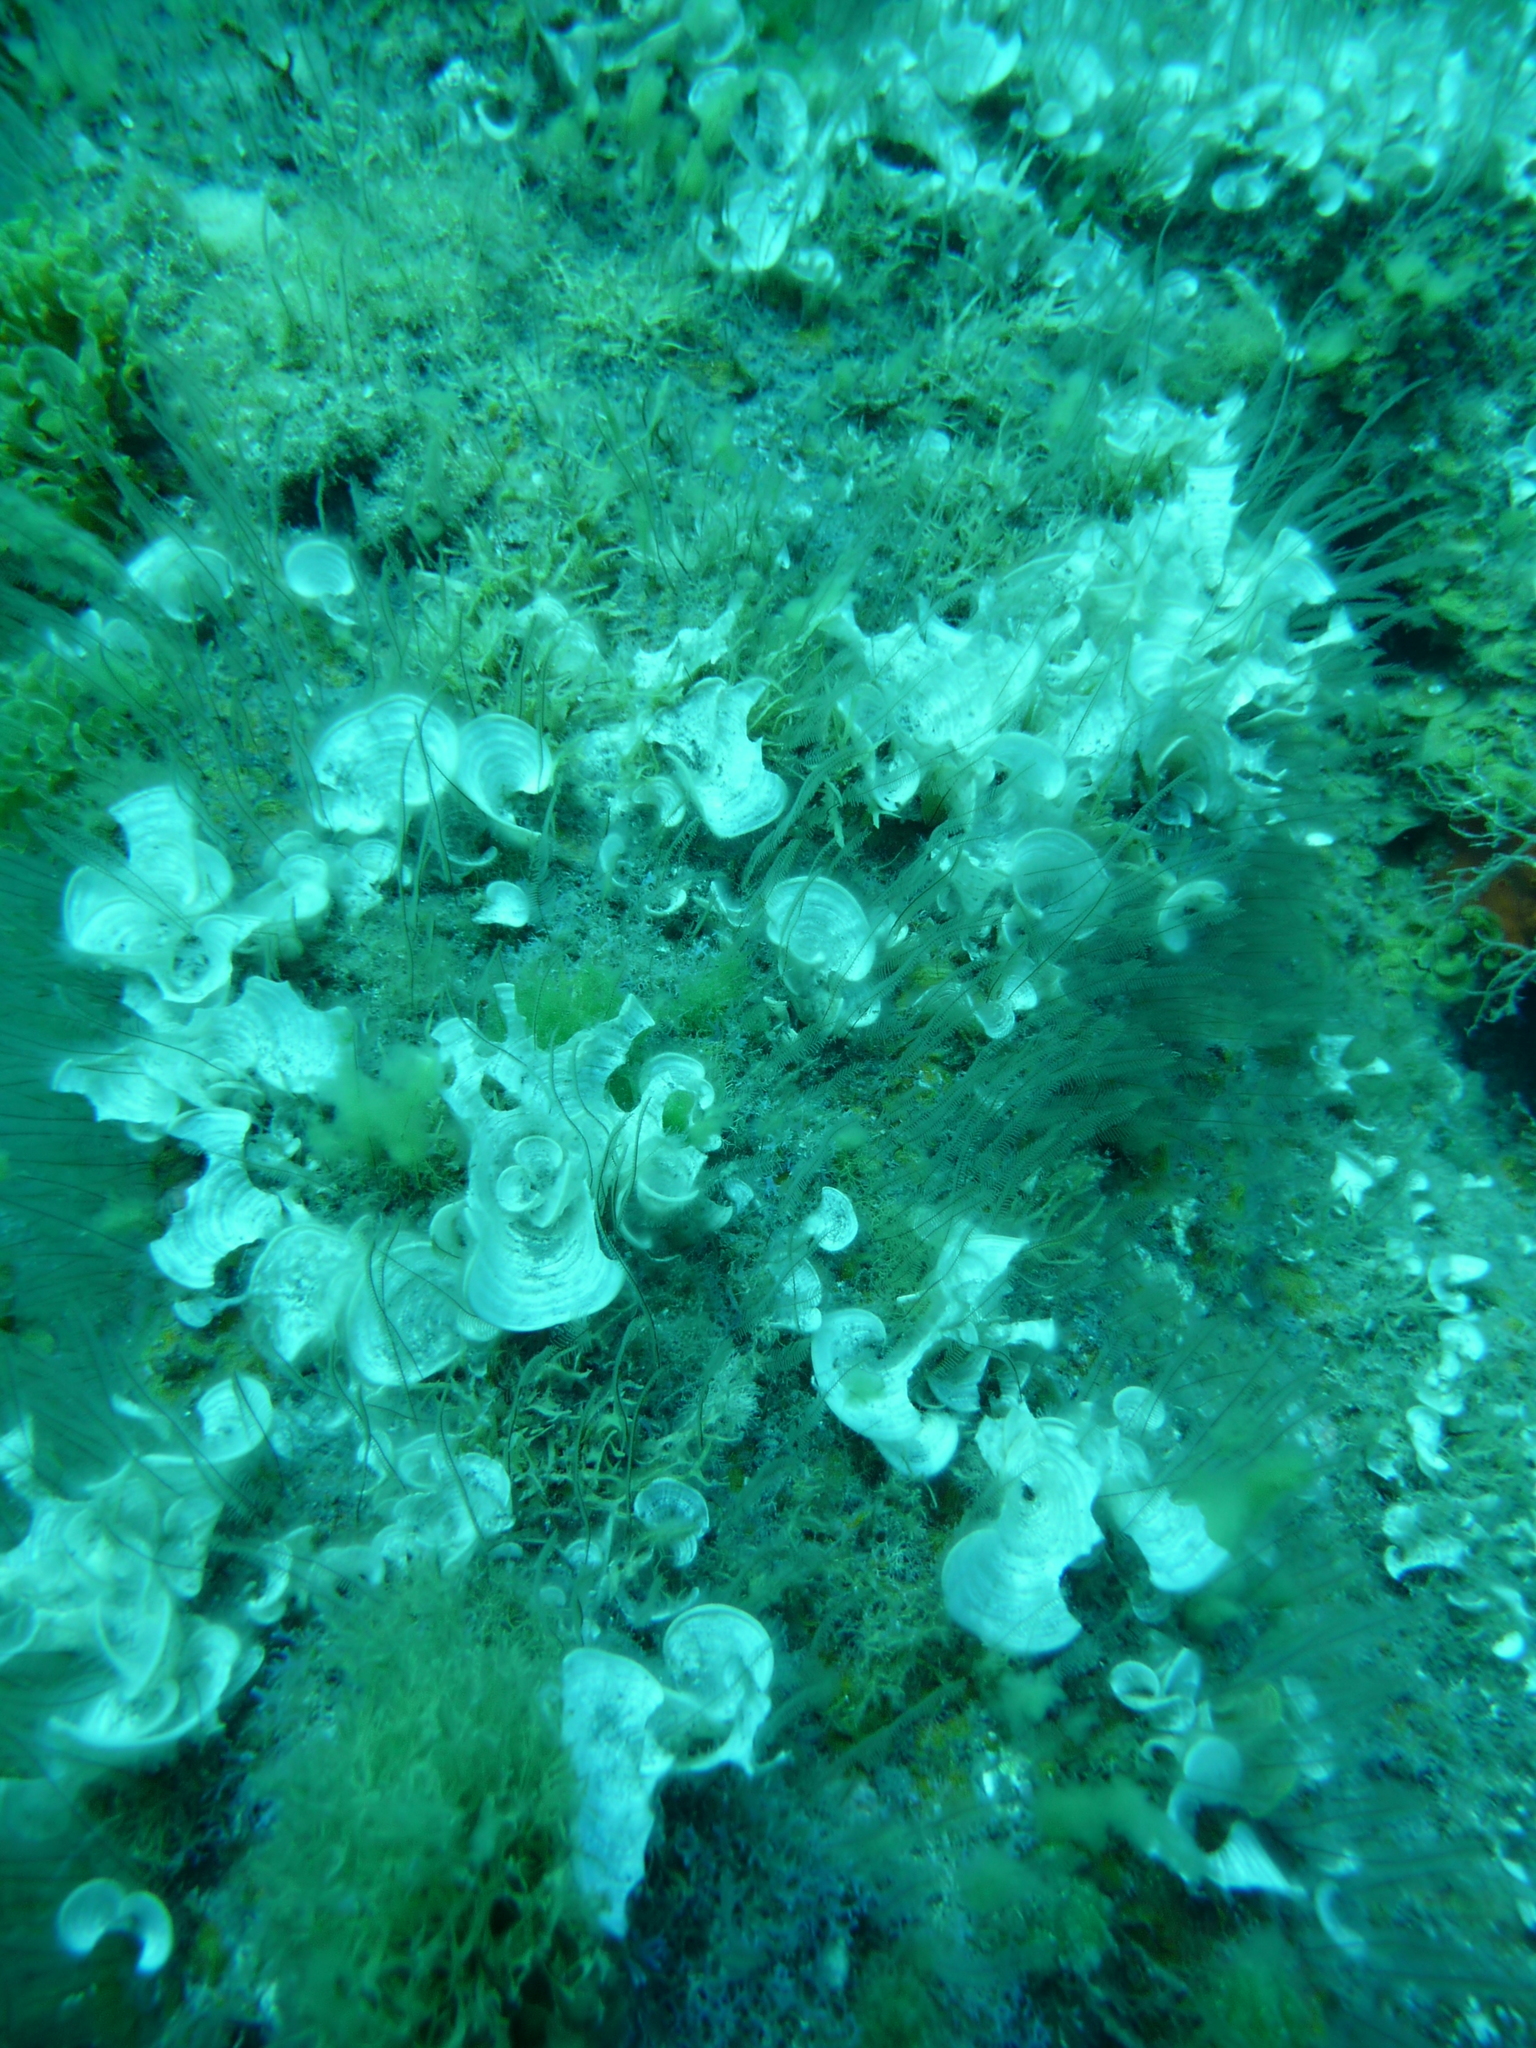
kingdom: Animalia
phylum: Cnidaria
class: Hydrozoa
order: Leptothecata
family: Aglaopheniidae
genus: Aglaophenia
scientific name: Aglaophenia pluma
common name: Podded hydroid
